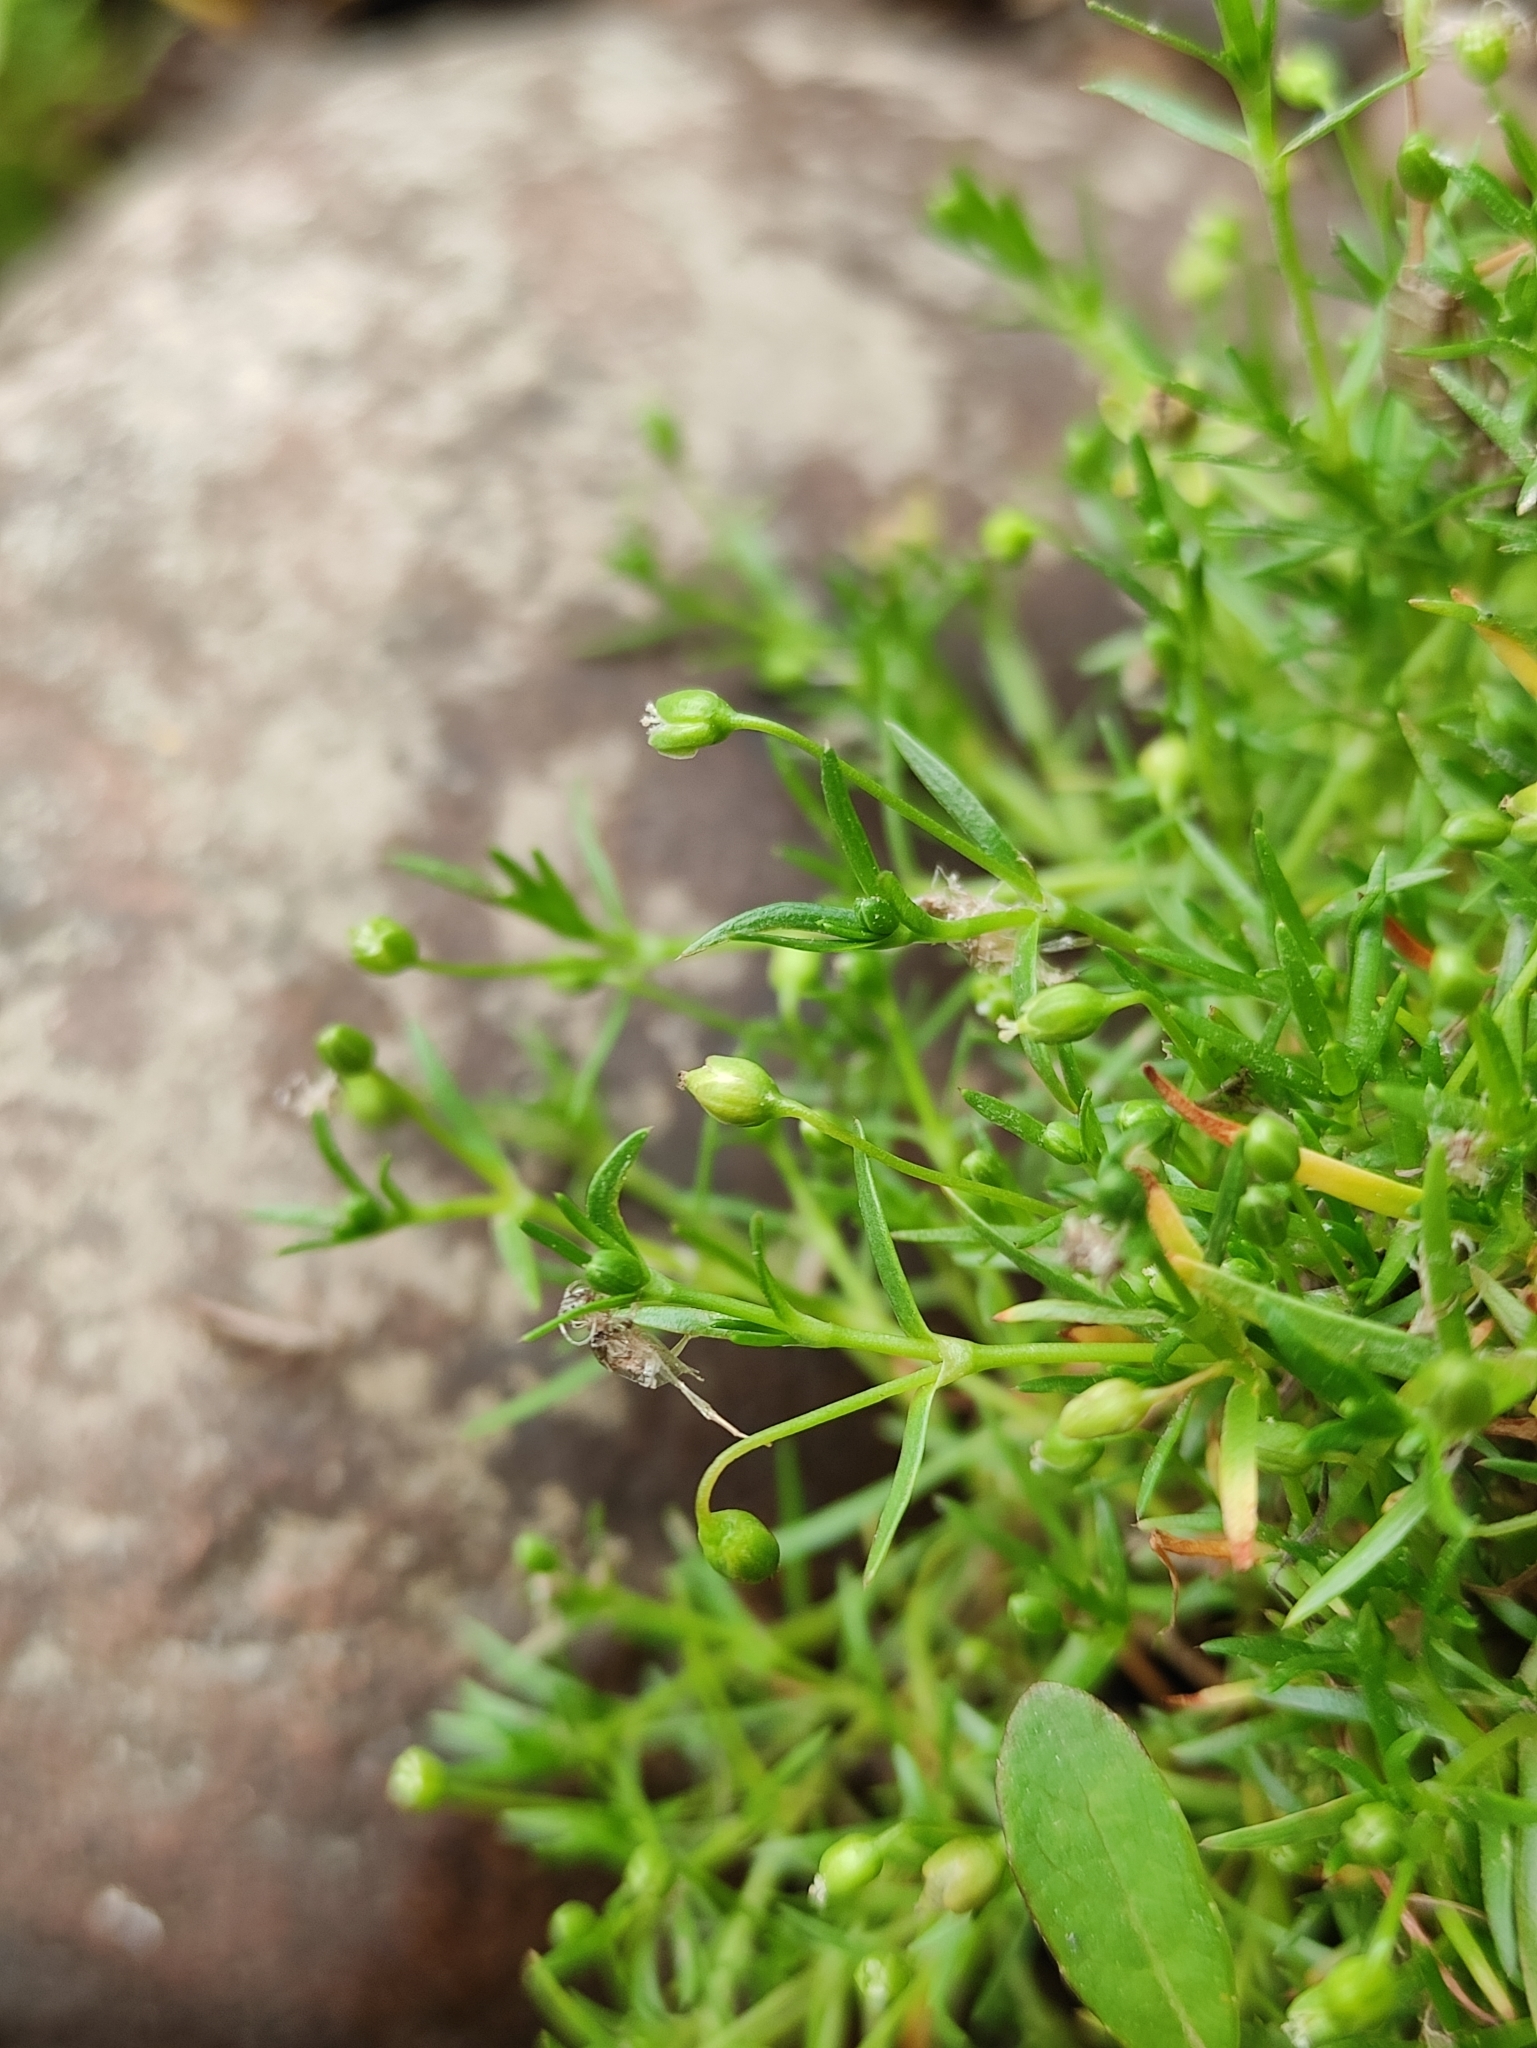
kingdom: Plantae
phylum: Tracheophyta
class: Magnoliopsida
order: Caryophyllales
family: Caryophyllaceae
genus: Sagina
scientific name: Sagina saginoides
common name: Alpine pearlwort
